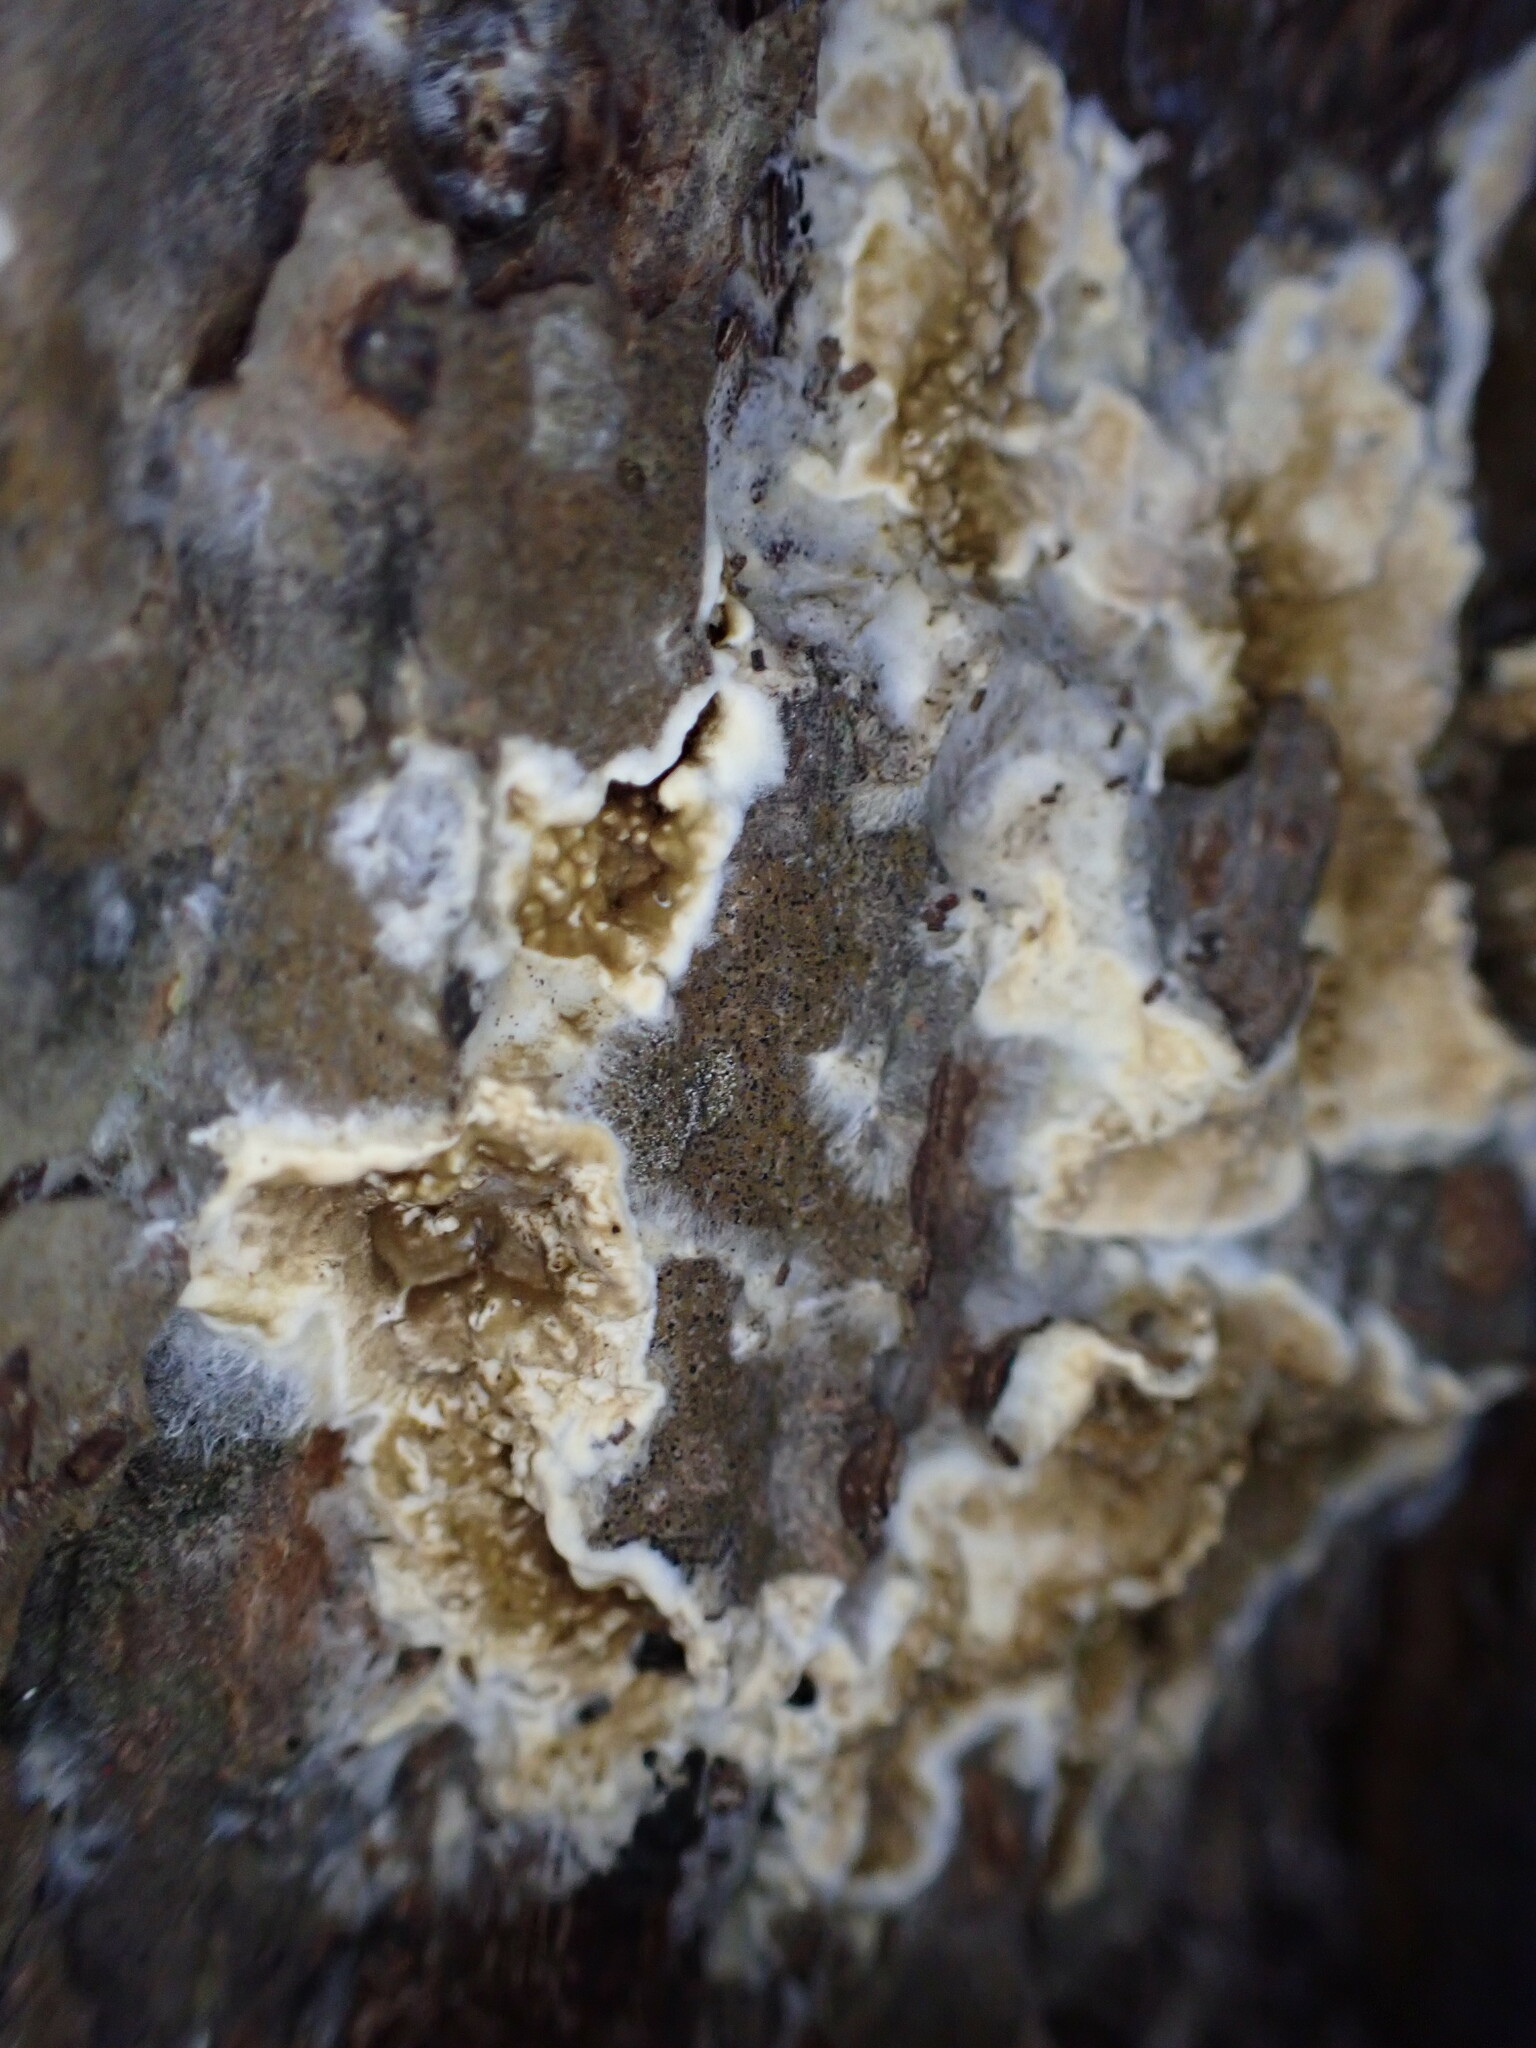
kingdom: Fungi
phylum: Basidiomycota
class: Agaricomycetes
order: Boletales
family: Coniophoraceae
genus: Coniophora
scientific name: Coniophora puteana
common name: Cellar fungus
